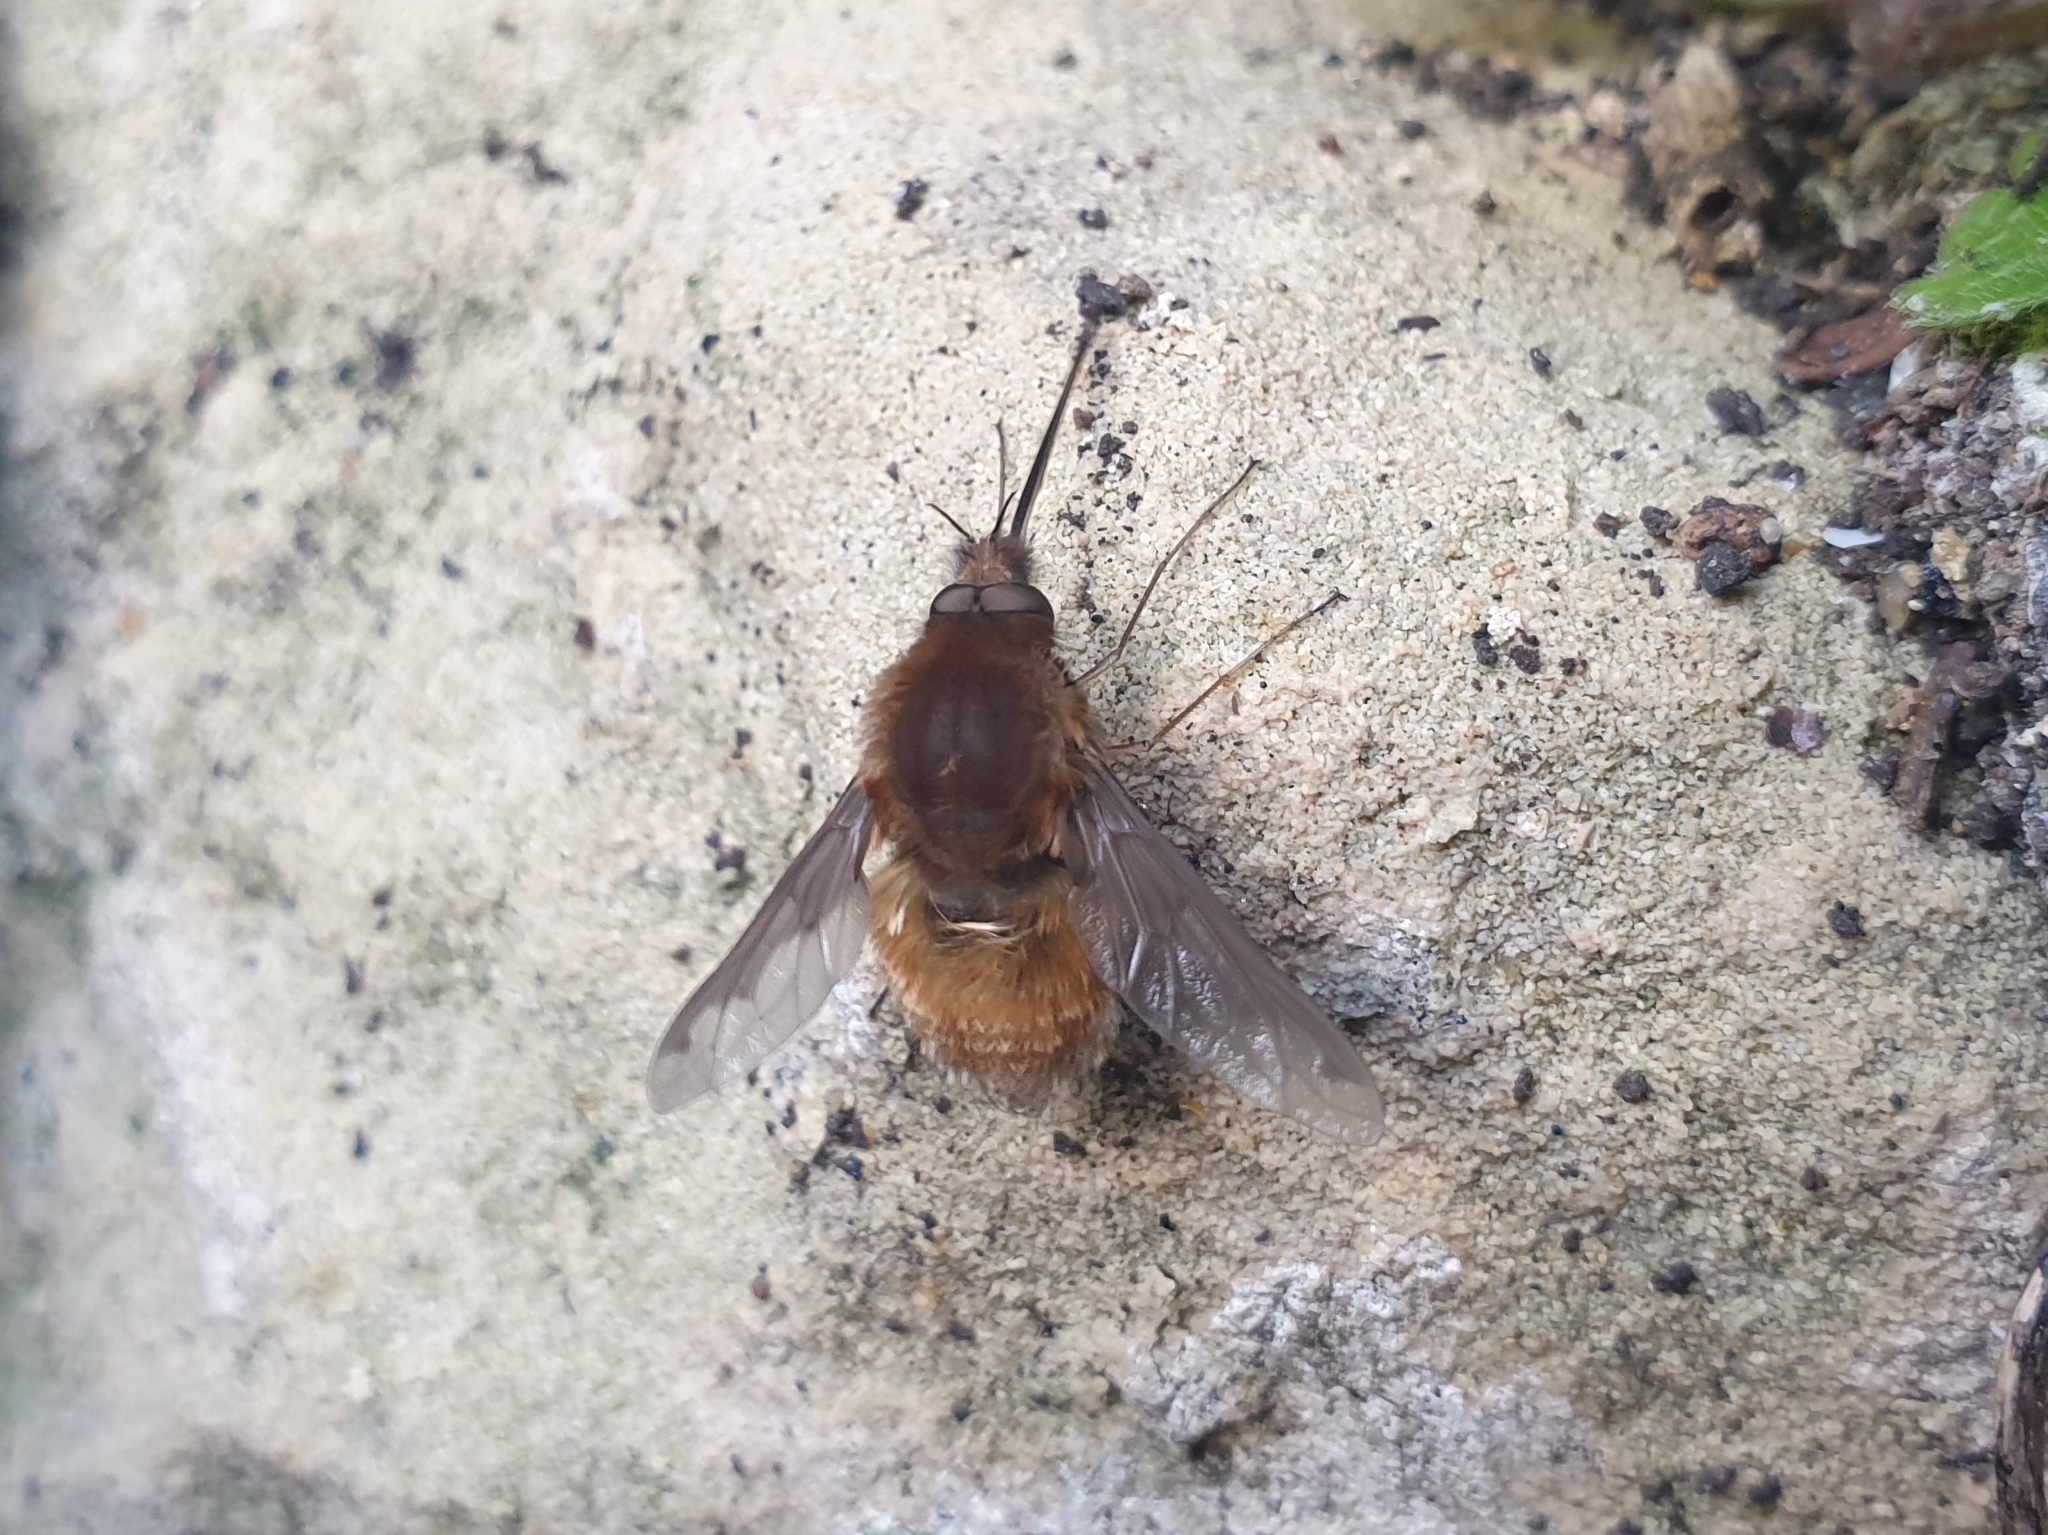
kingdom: Animalia
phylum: Arthropoda
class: Insecta
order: Diptera
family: Bombyliidae
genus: Bombylius
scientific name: Bombylius major
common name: Bee fly
